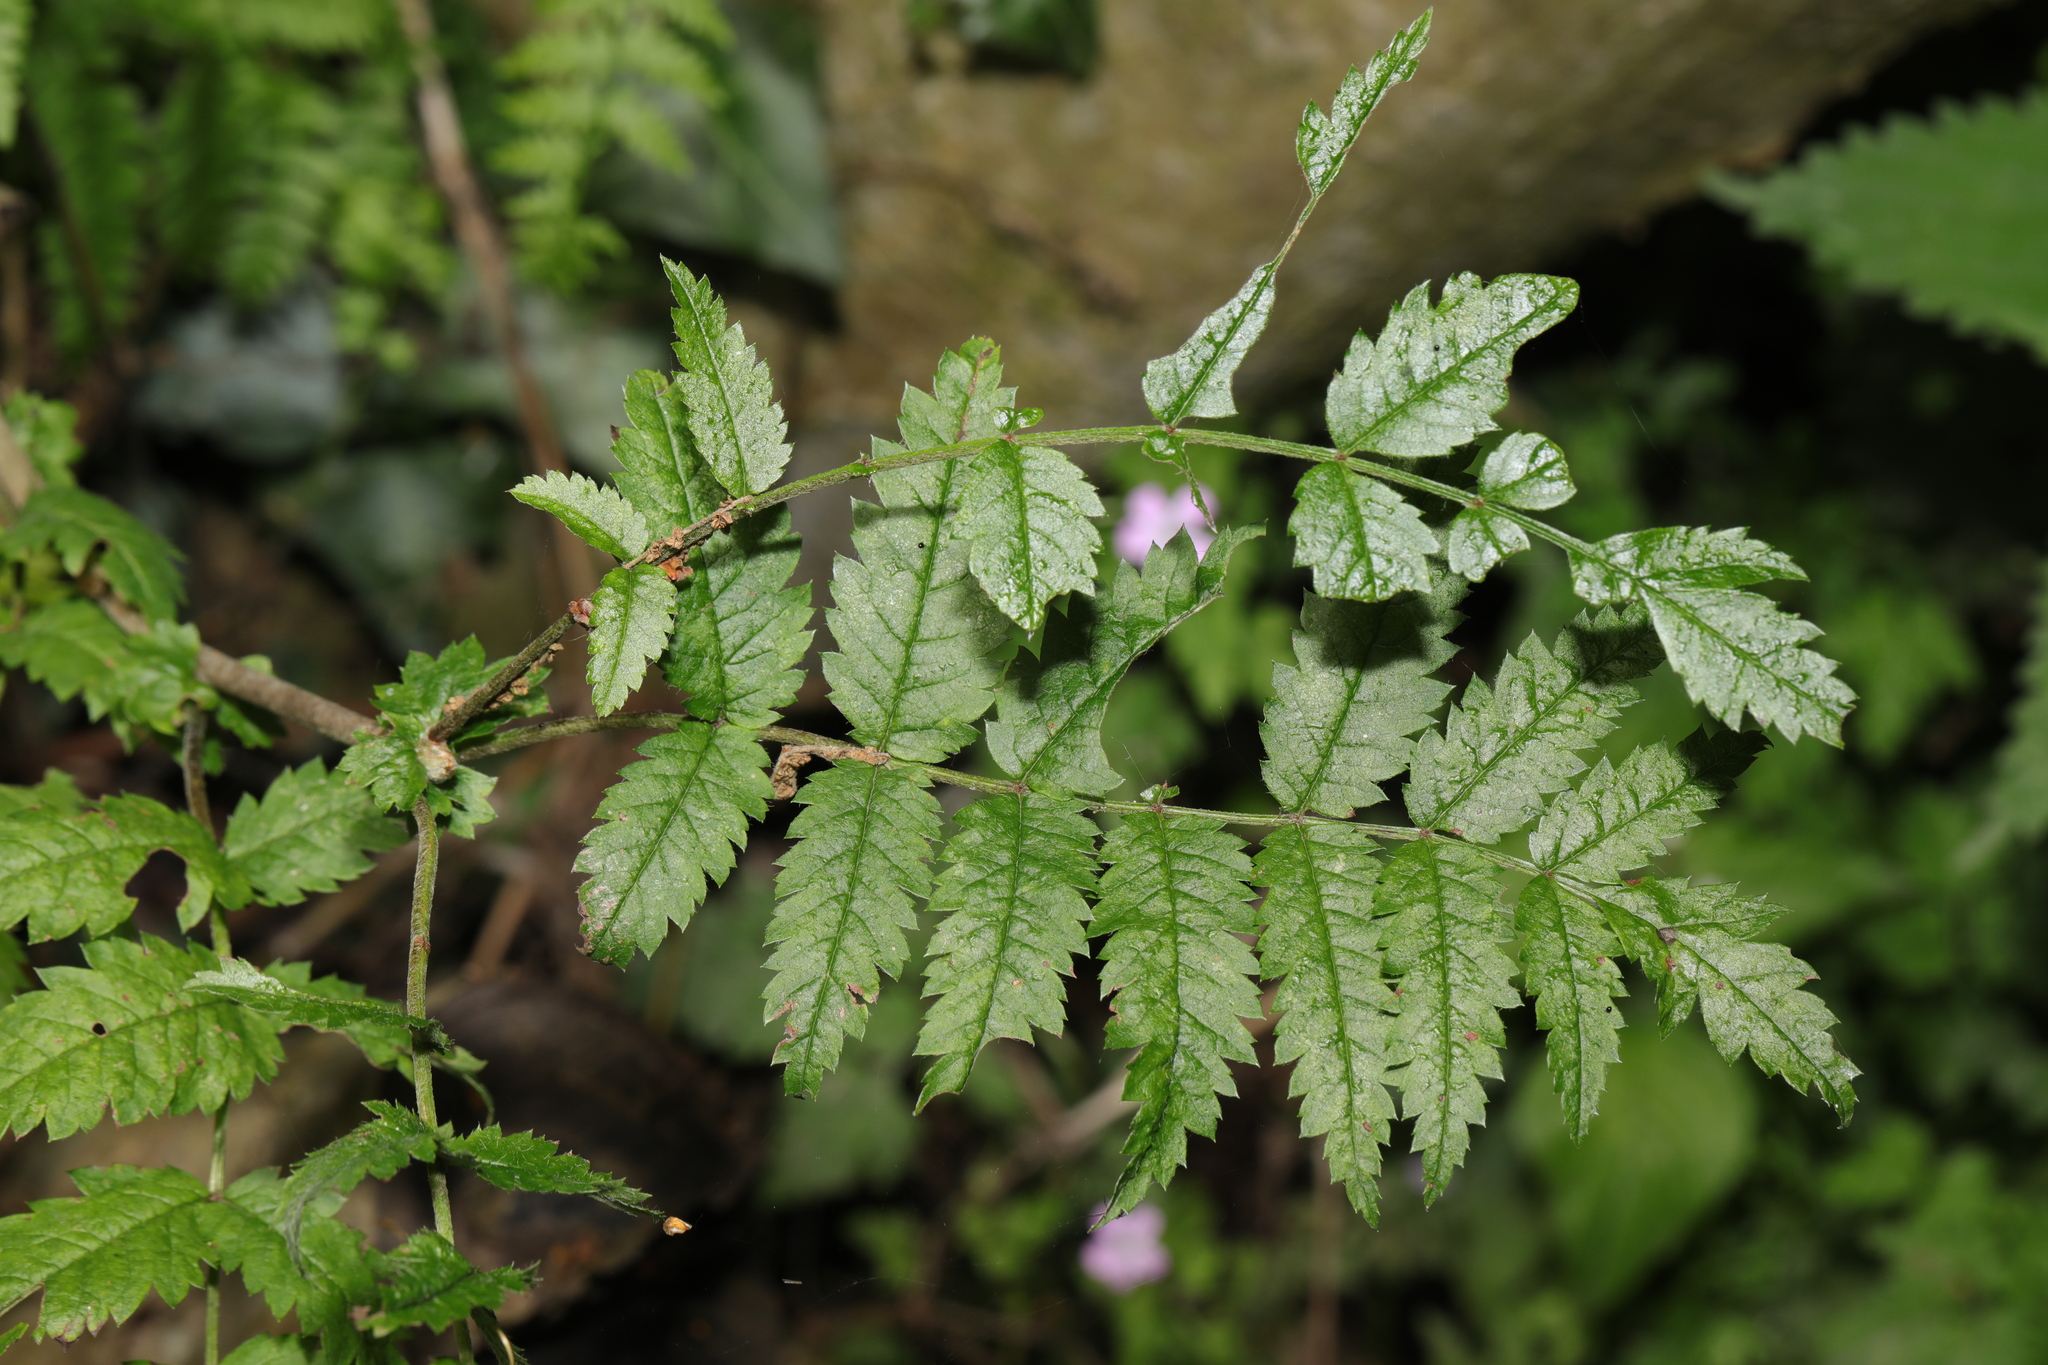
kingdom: Plantae
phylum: Tracheophyta
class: Magnoliopsida
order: Rosales
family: Rosaceae
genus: Sorbus
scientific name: Sorbus aucuparia
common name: Rowan
